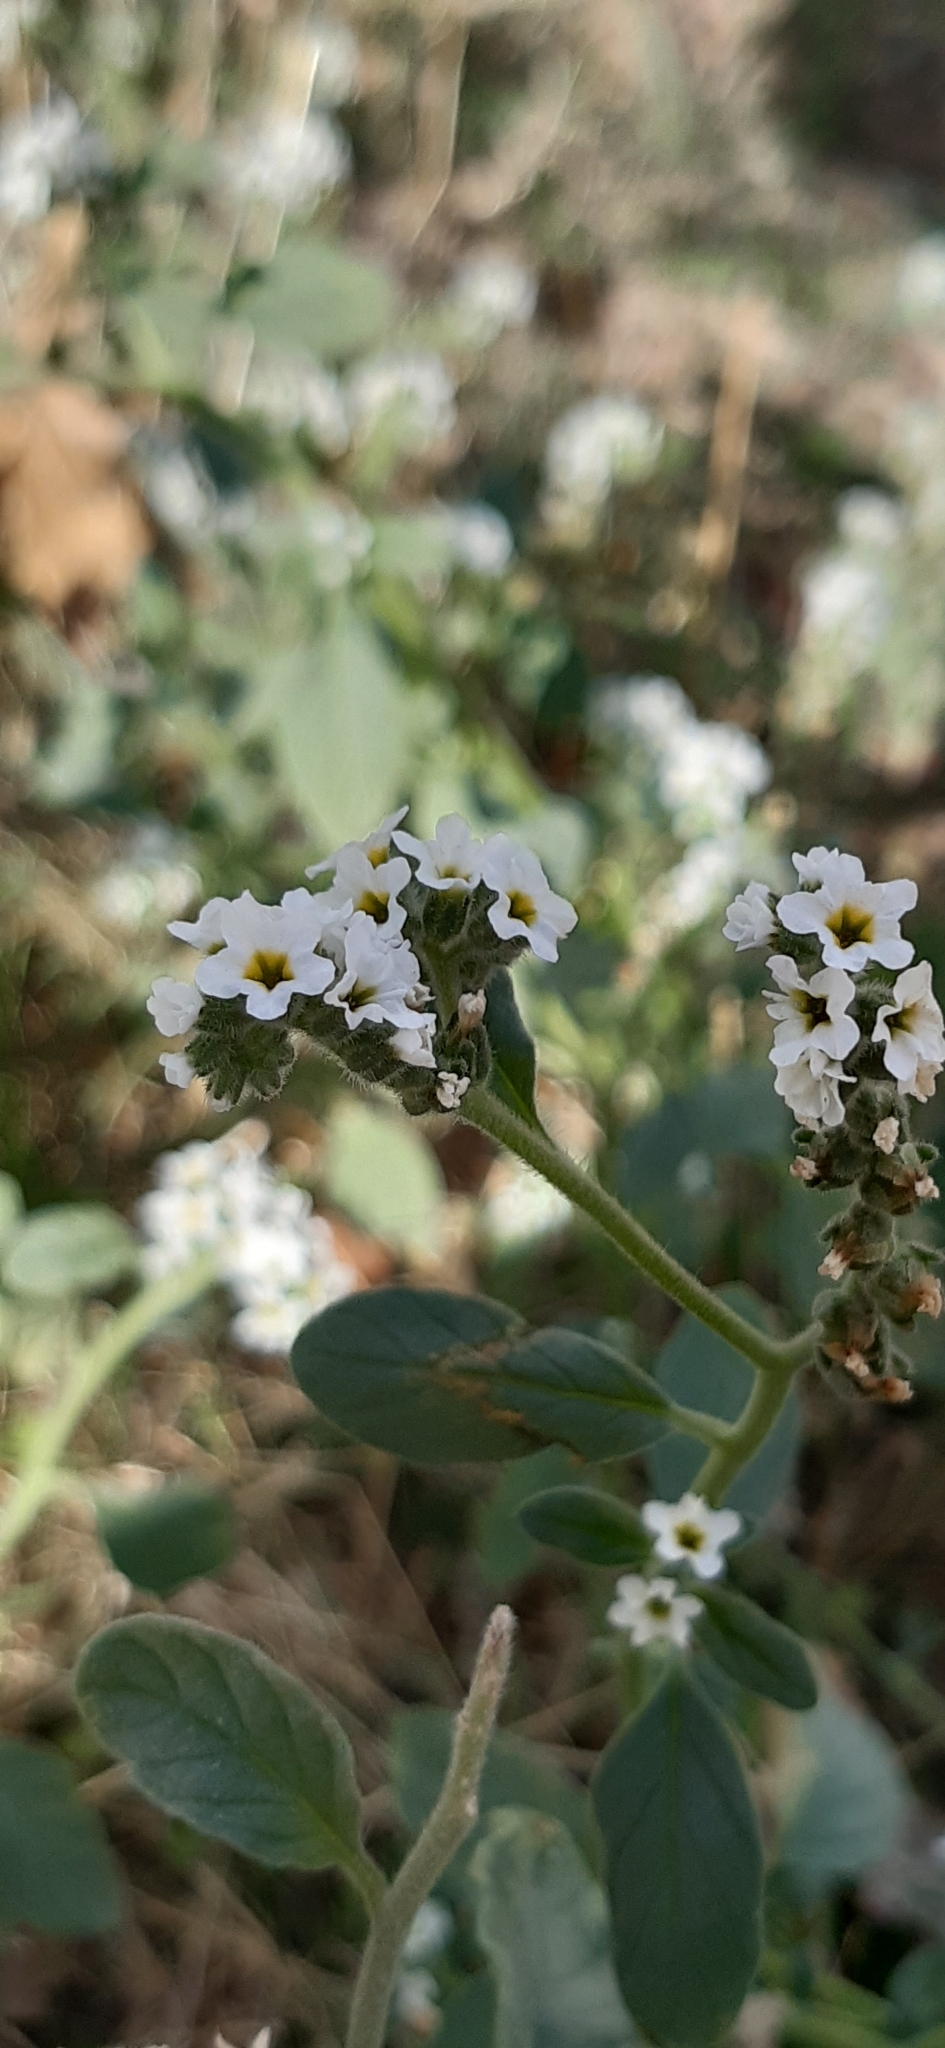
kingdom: Plantae
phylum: Tracheophyta
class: Magnoliopsida
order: Boraginales
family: Heliotropiaceae
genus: Heliotropium
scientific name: Heliotropium europaeum
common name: European heliotrope
